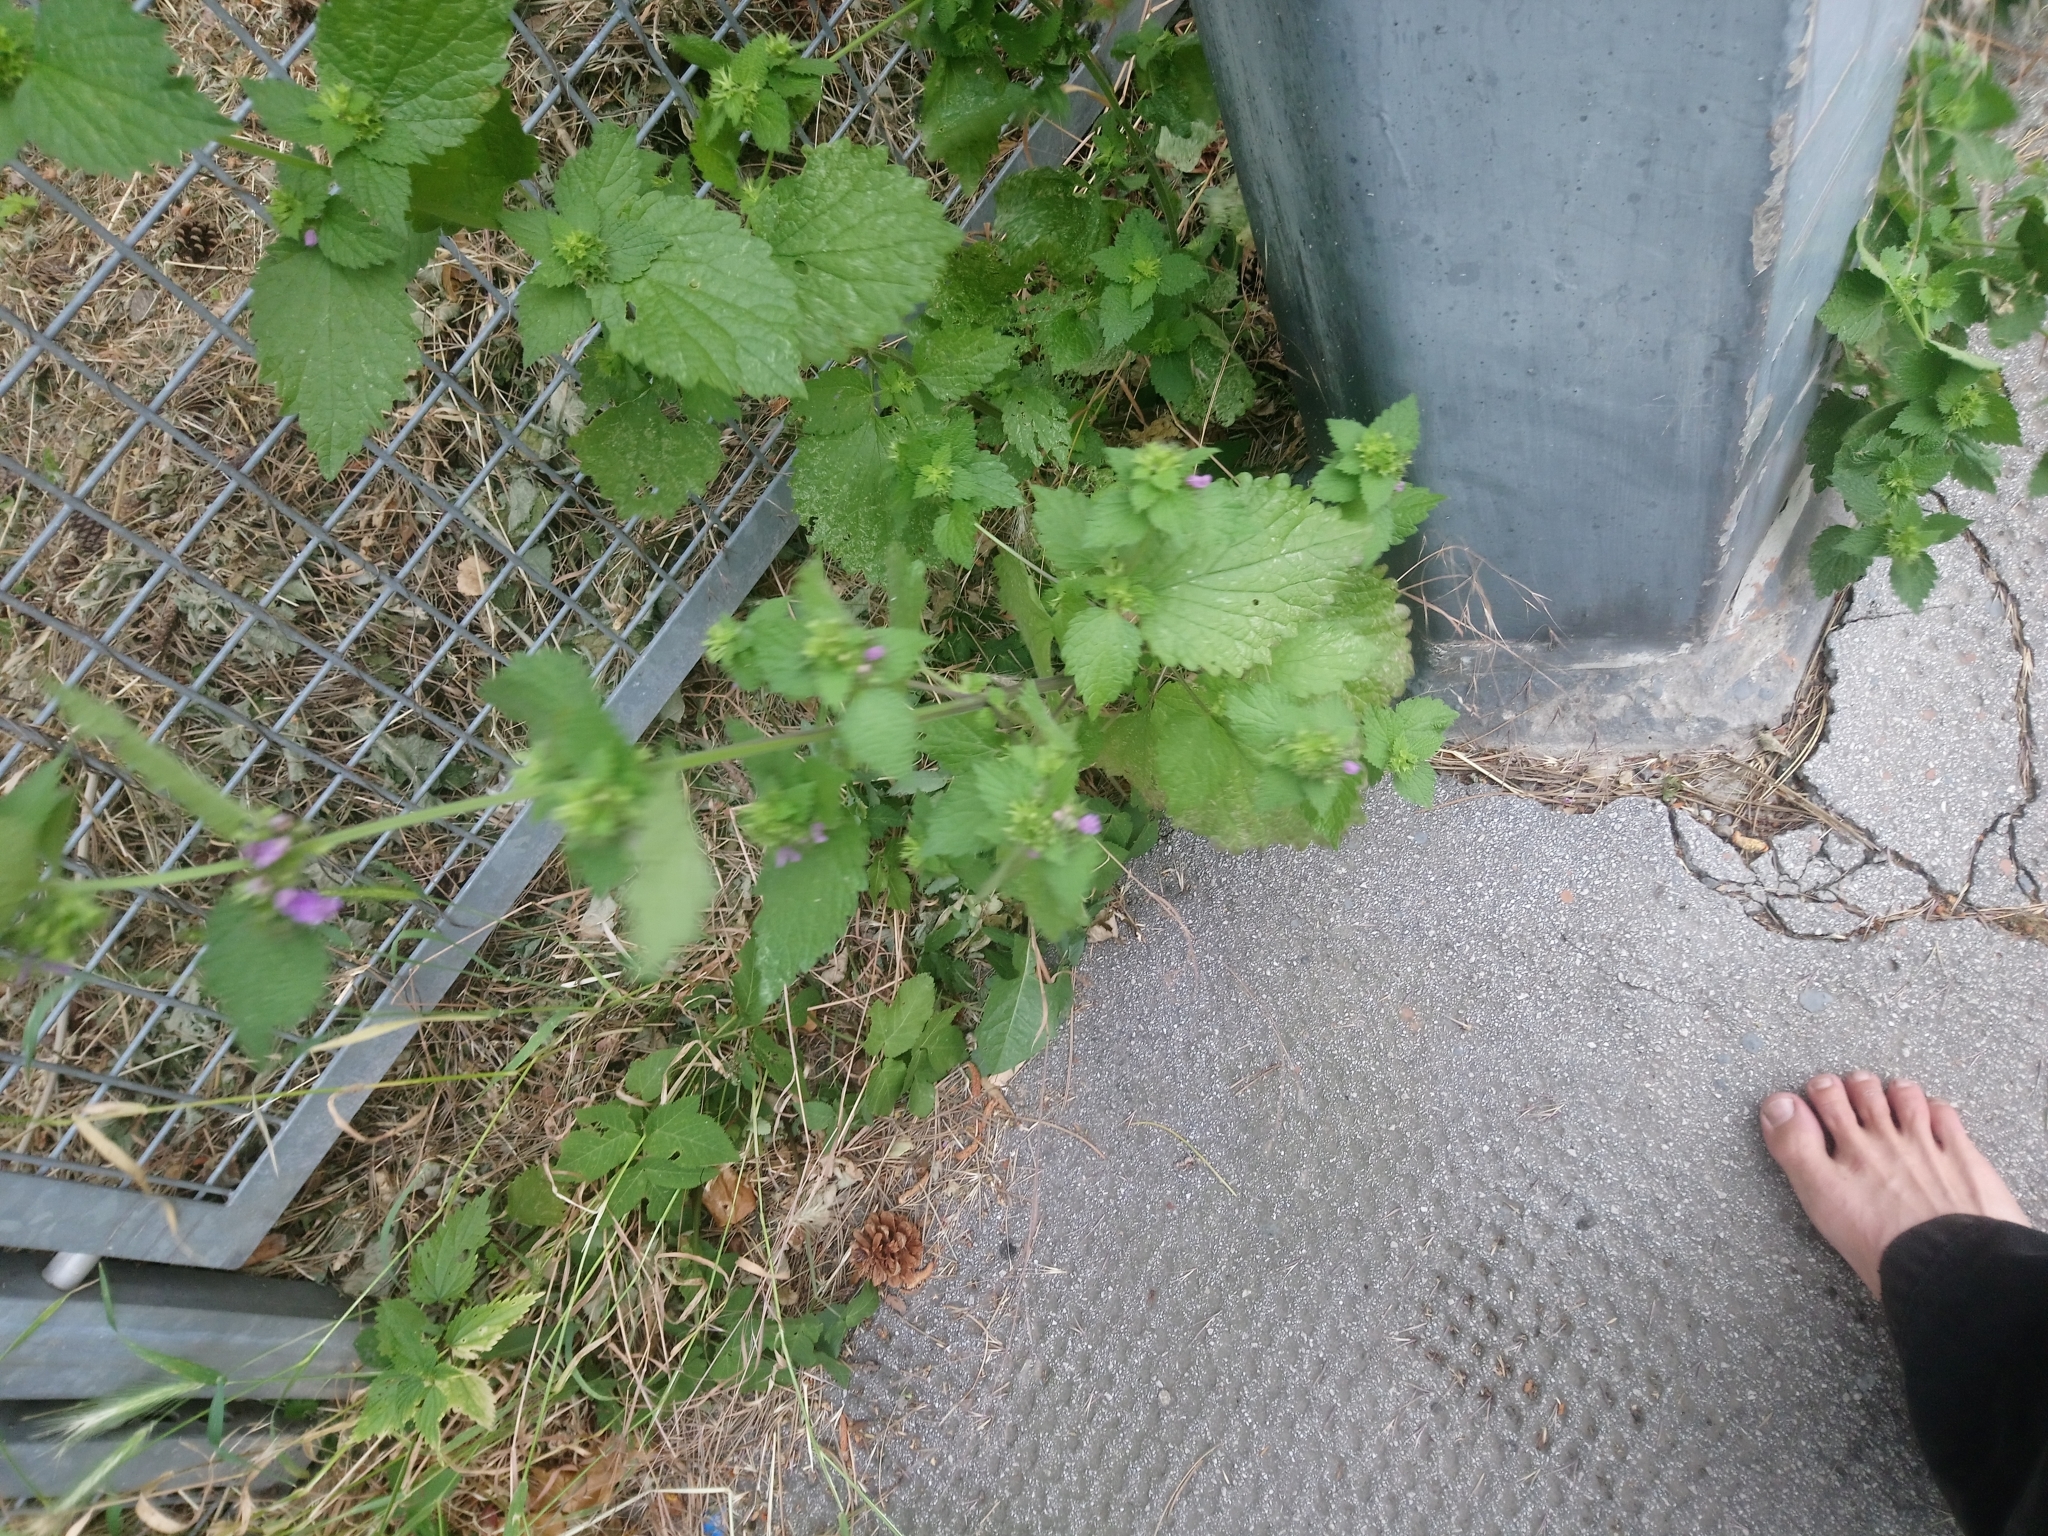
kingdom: Plantae
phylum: Tracheophyta
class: Magnoliopsida
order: Lamiales
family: Lamiaceae
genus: Ballota
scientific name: Ballota nigra
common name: Black horehound
